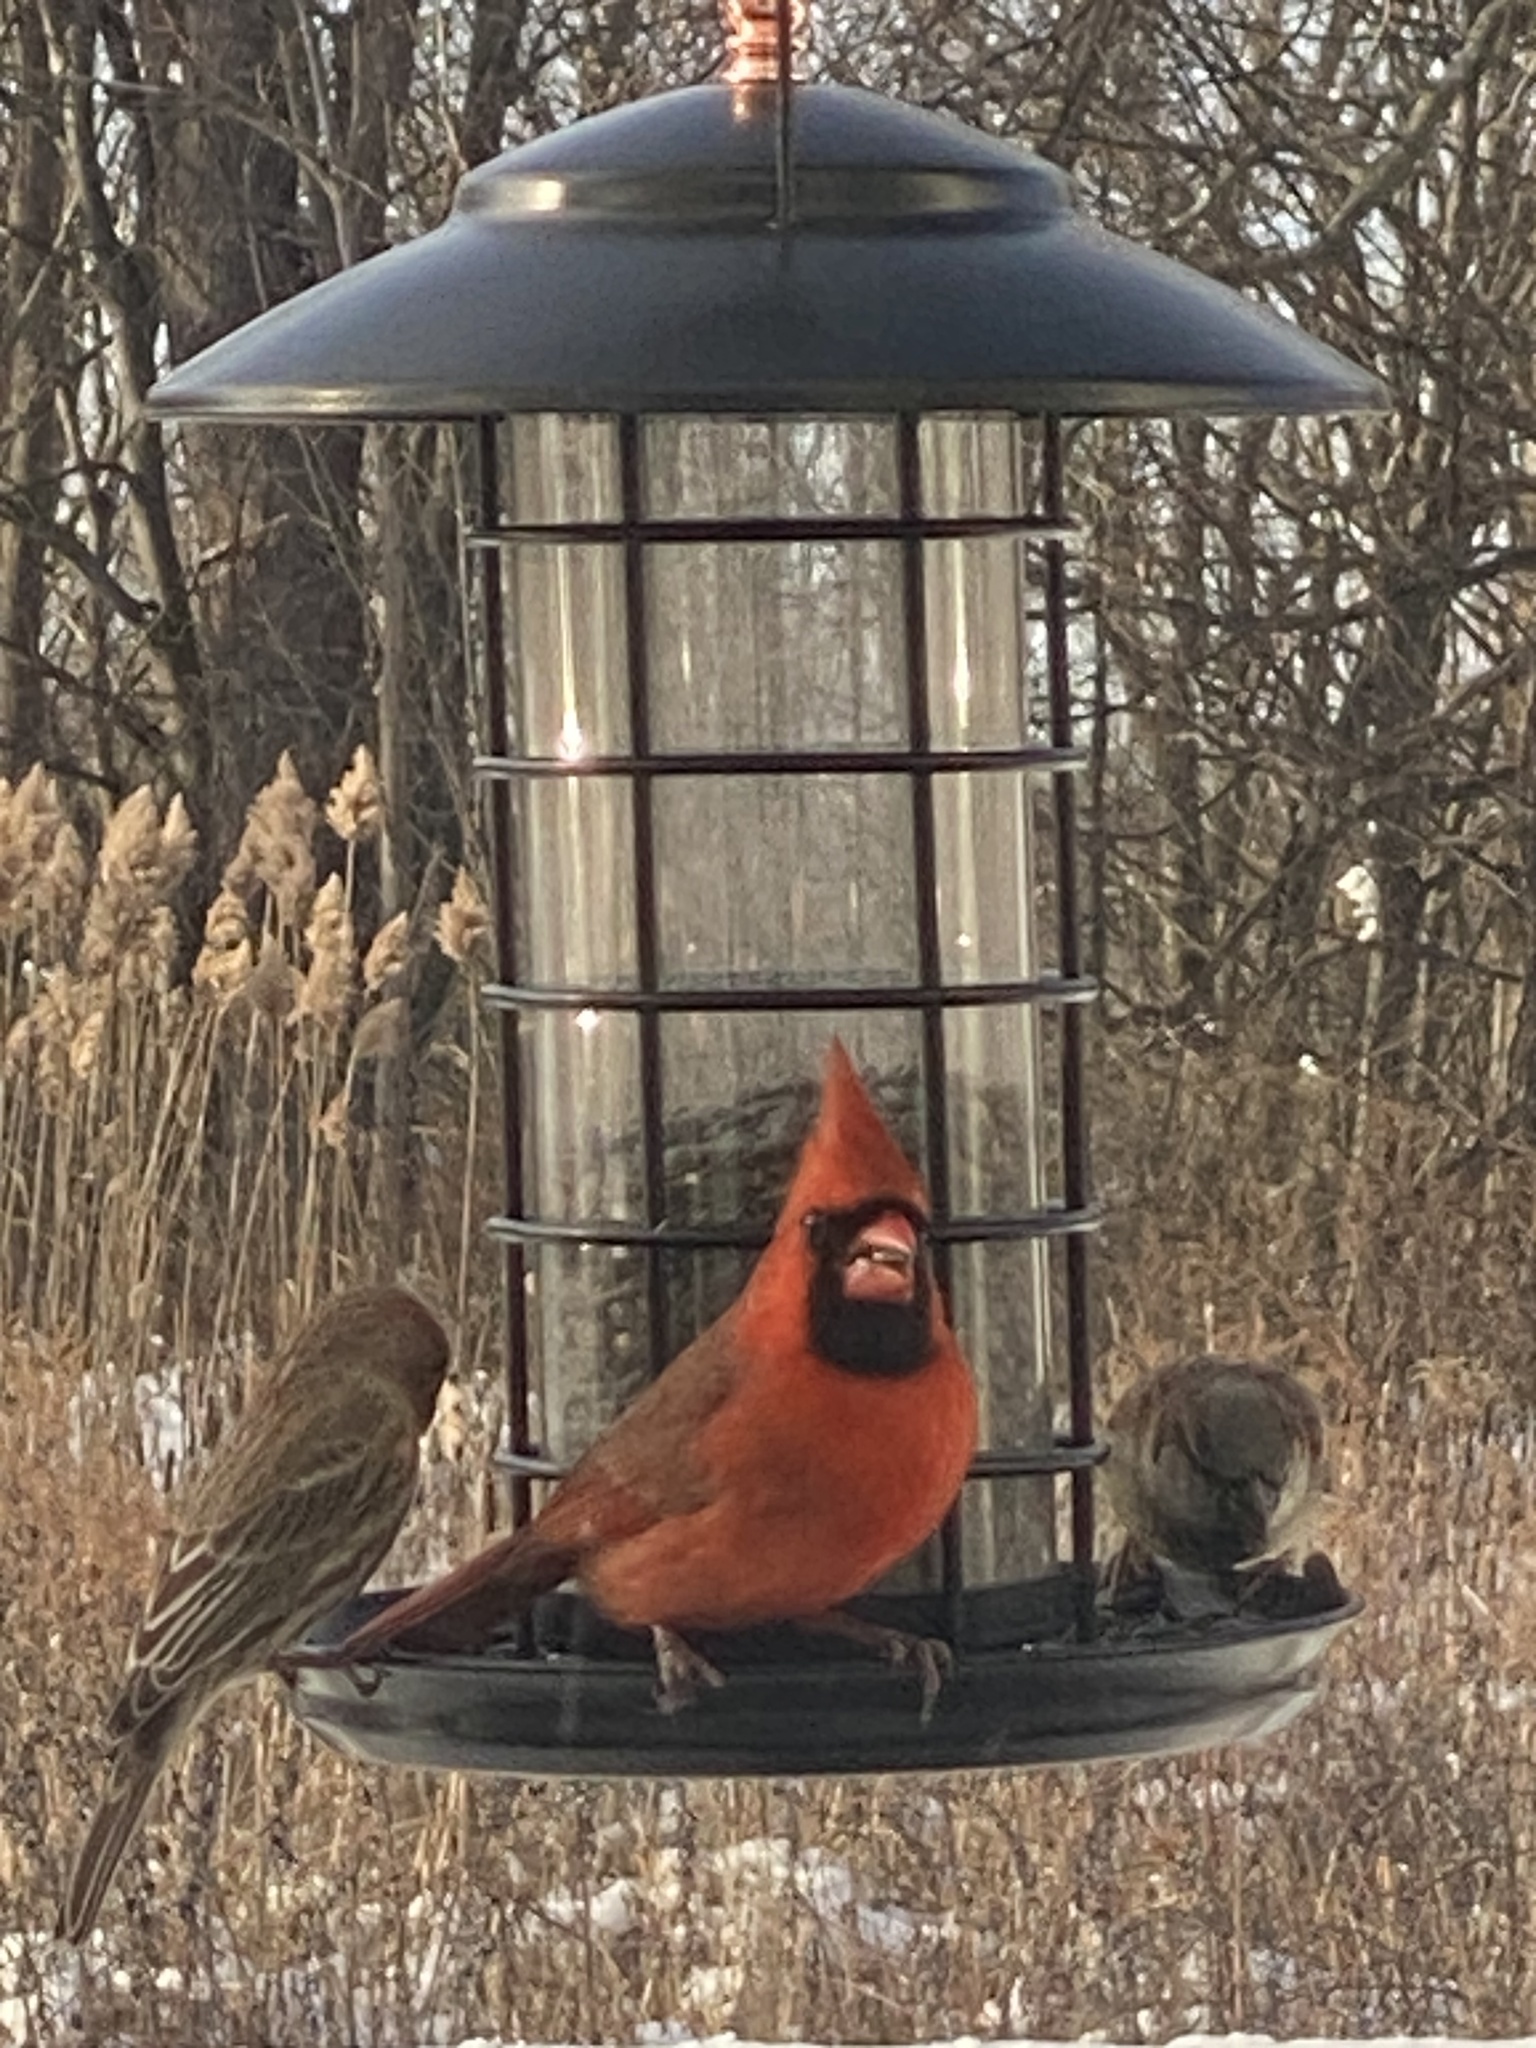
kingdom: Animalia
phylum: Chordata
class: Aves
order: Passeriformes
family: Cardinalidae
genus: Cardinalis
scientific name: Cardinalis cardinalis
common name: Northern cardinal
